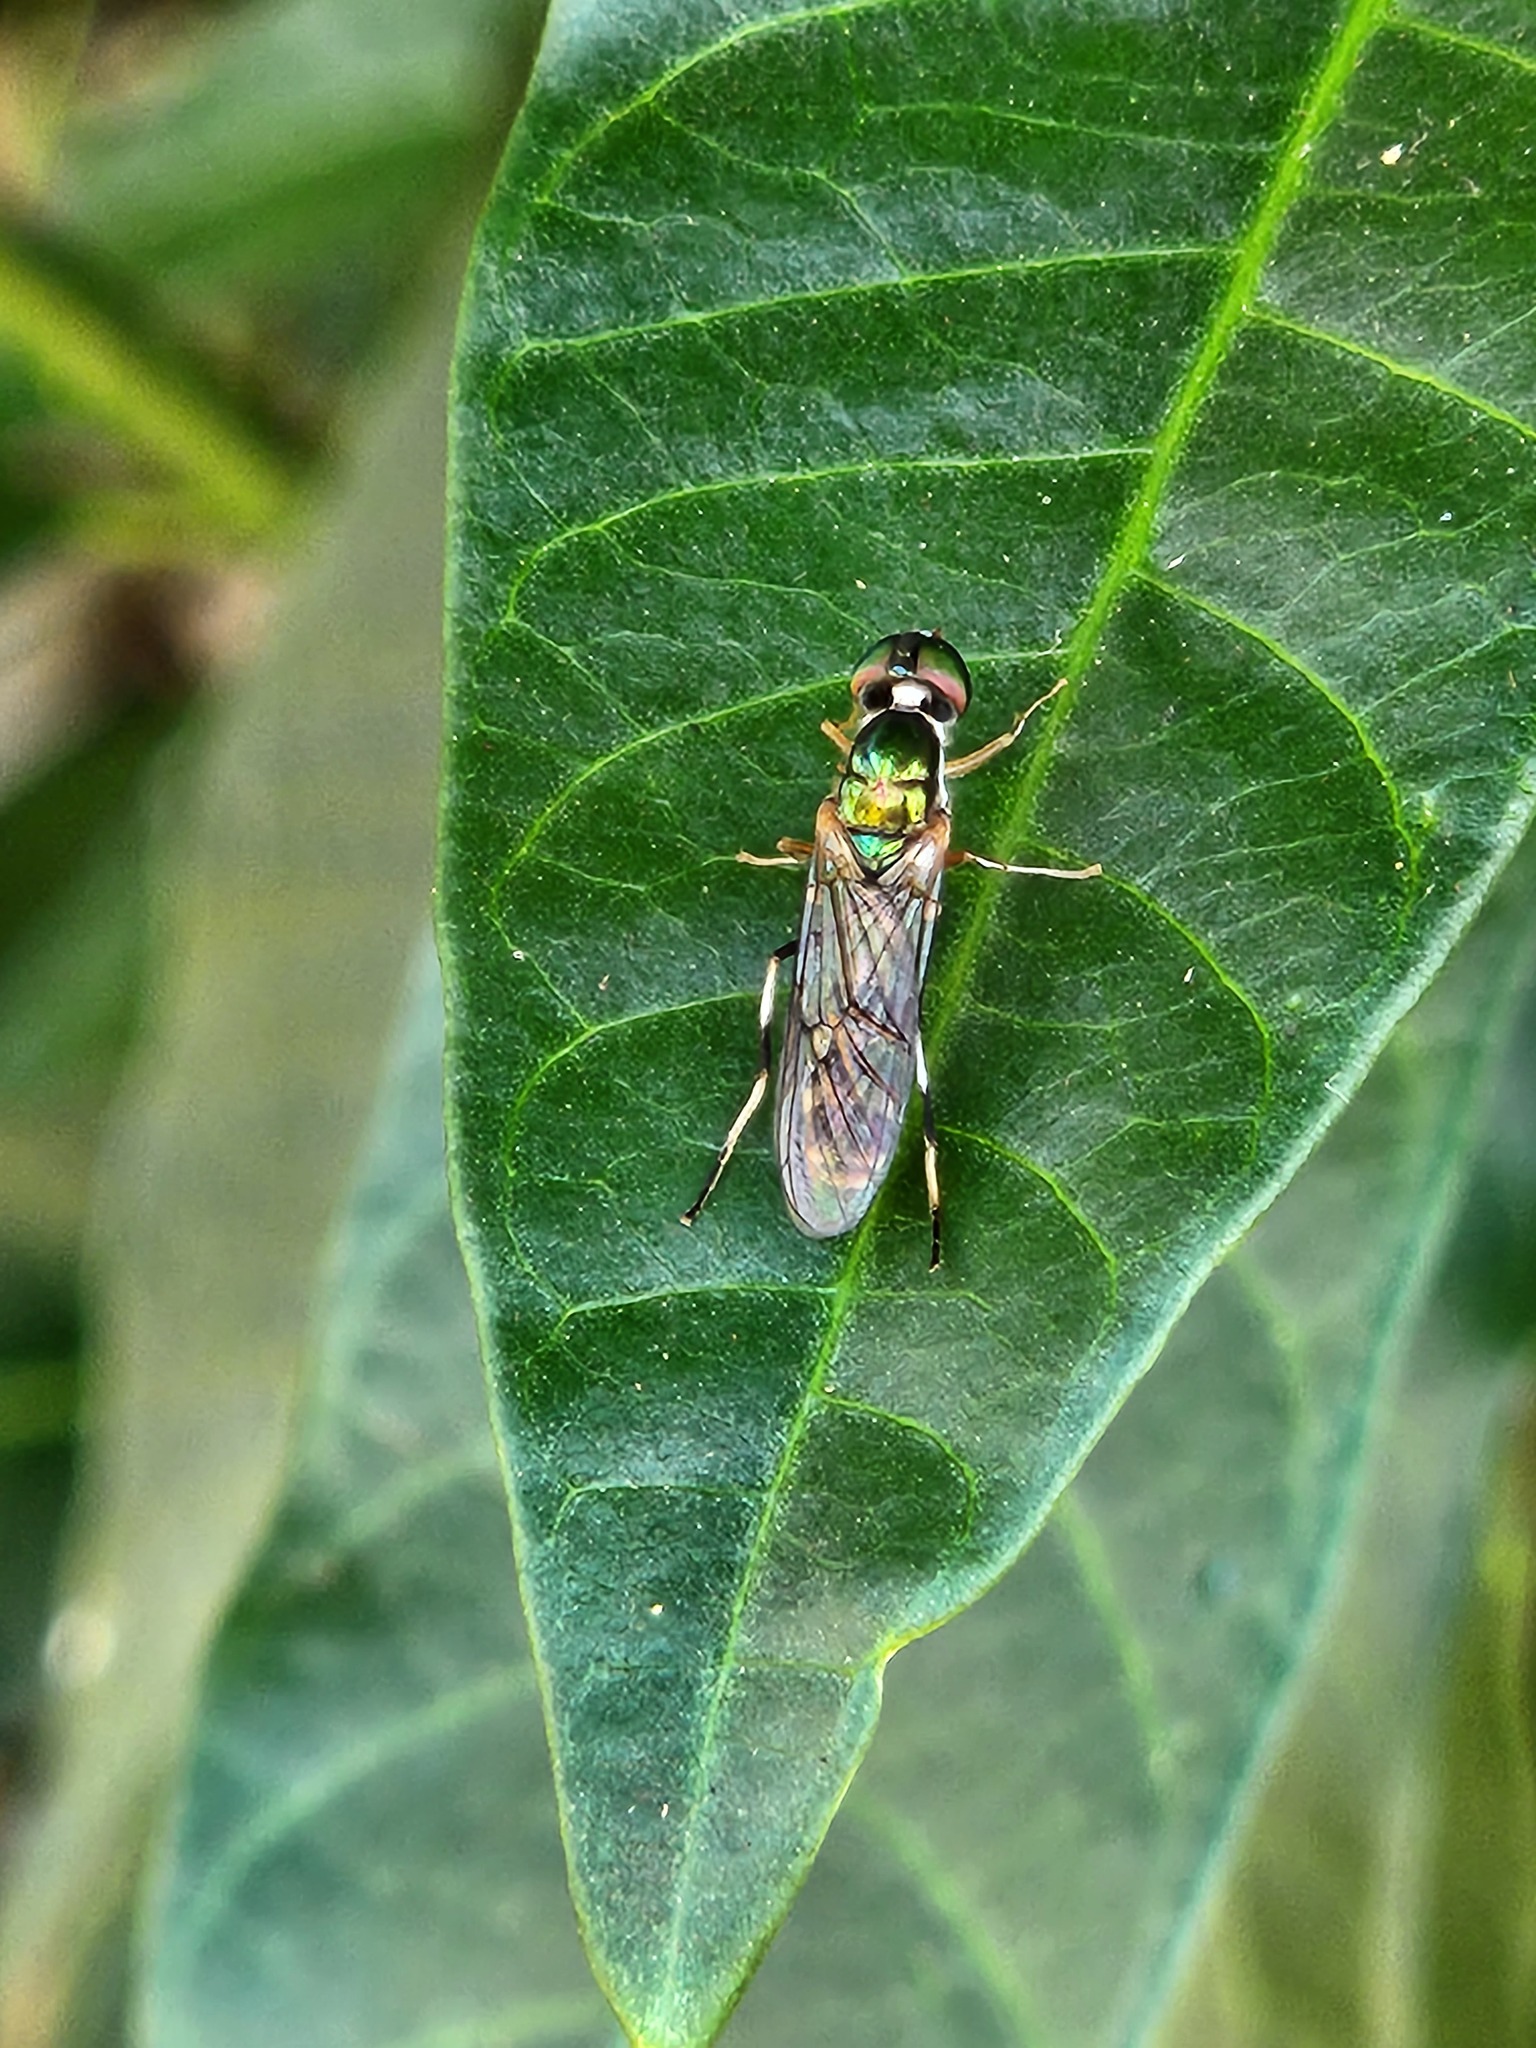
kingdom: Animalia
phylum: Arthropoda
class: Insecta
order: Diptera
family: Stratiomyidae
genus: Sargus
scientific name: Sargus fasciatus
